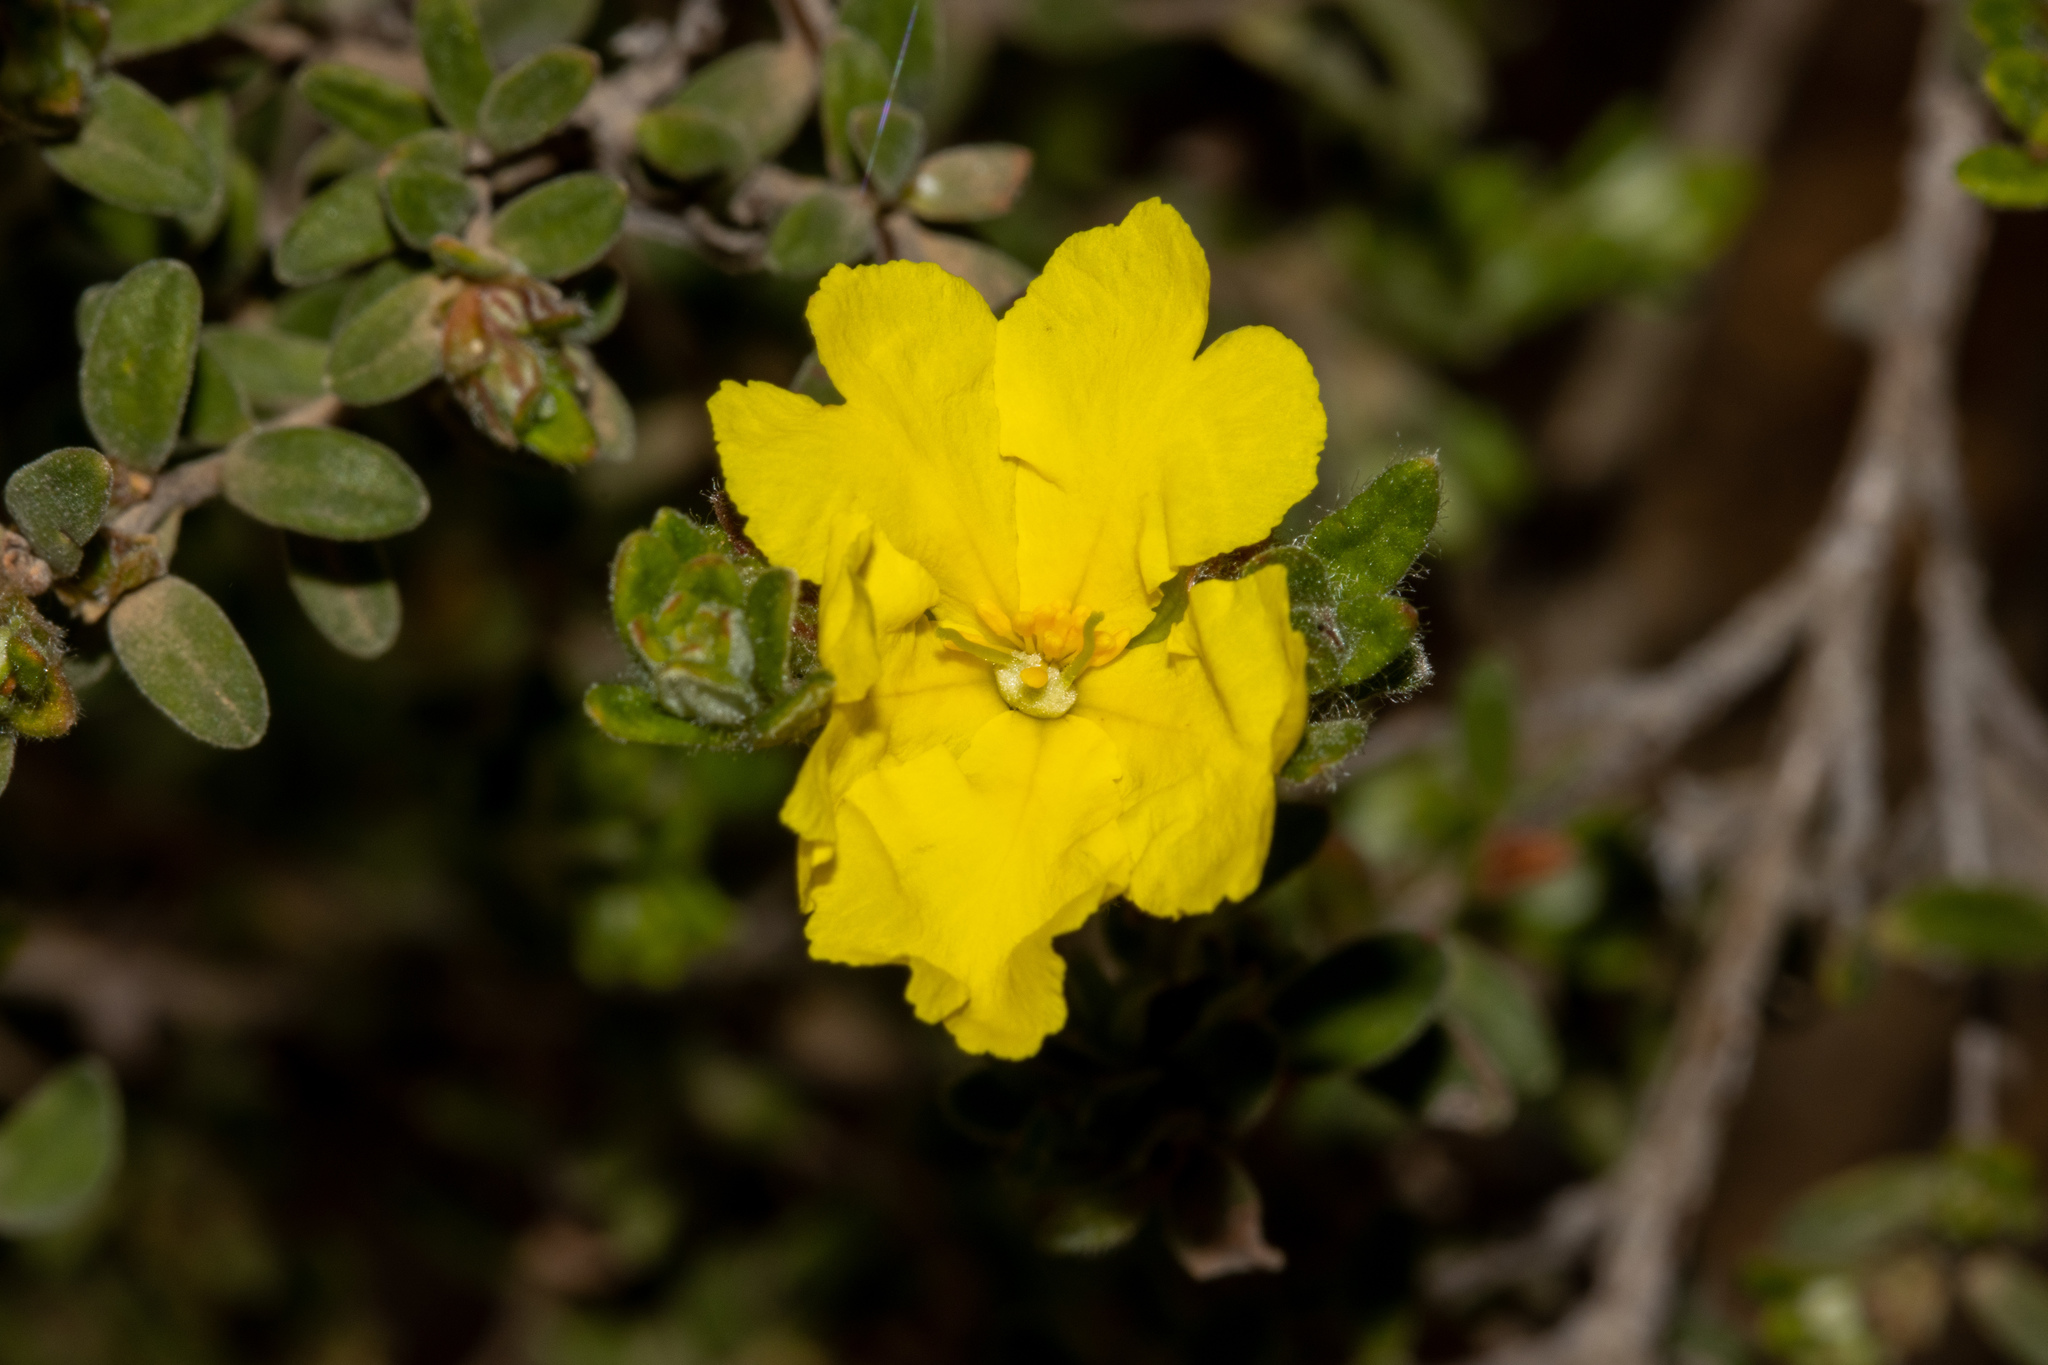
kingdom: Plantae
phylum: Tracheophyta
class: Magnoliopsida
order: Dilleniales
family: Dilleniaceae
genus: Hibbertia
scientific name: Hibbertia crinita
